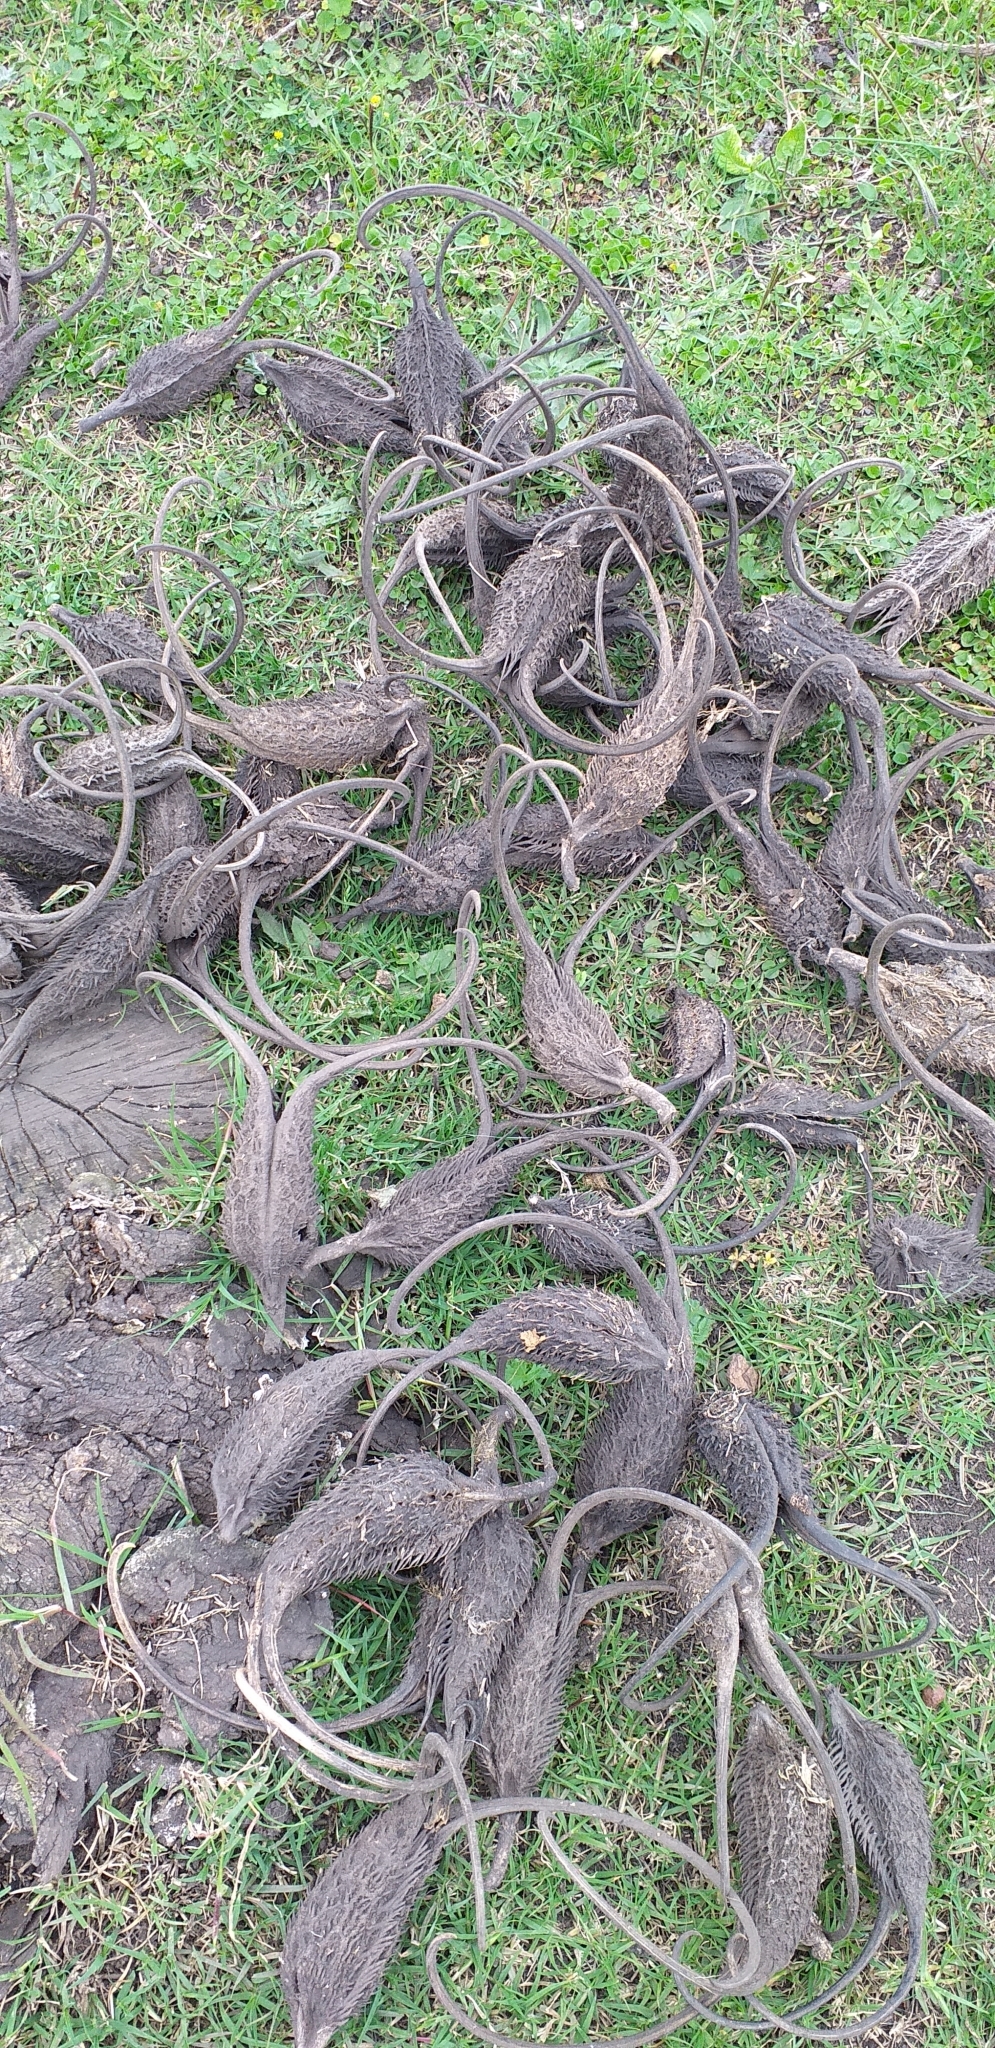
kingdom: Plantae
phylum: Tracheophyta
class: Magnoliopsida
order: Lamiales
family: Martyniaceae
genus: Ibicella
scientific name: Ibicella lutea
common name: Yellow unicorn-plant
